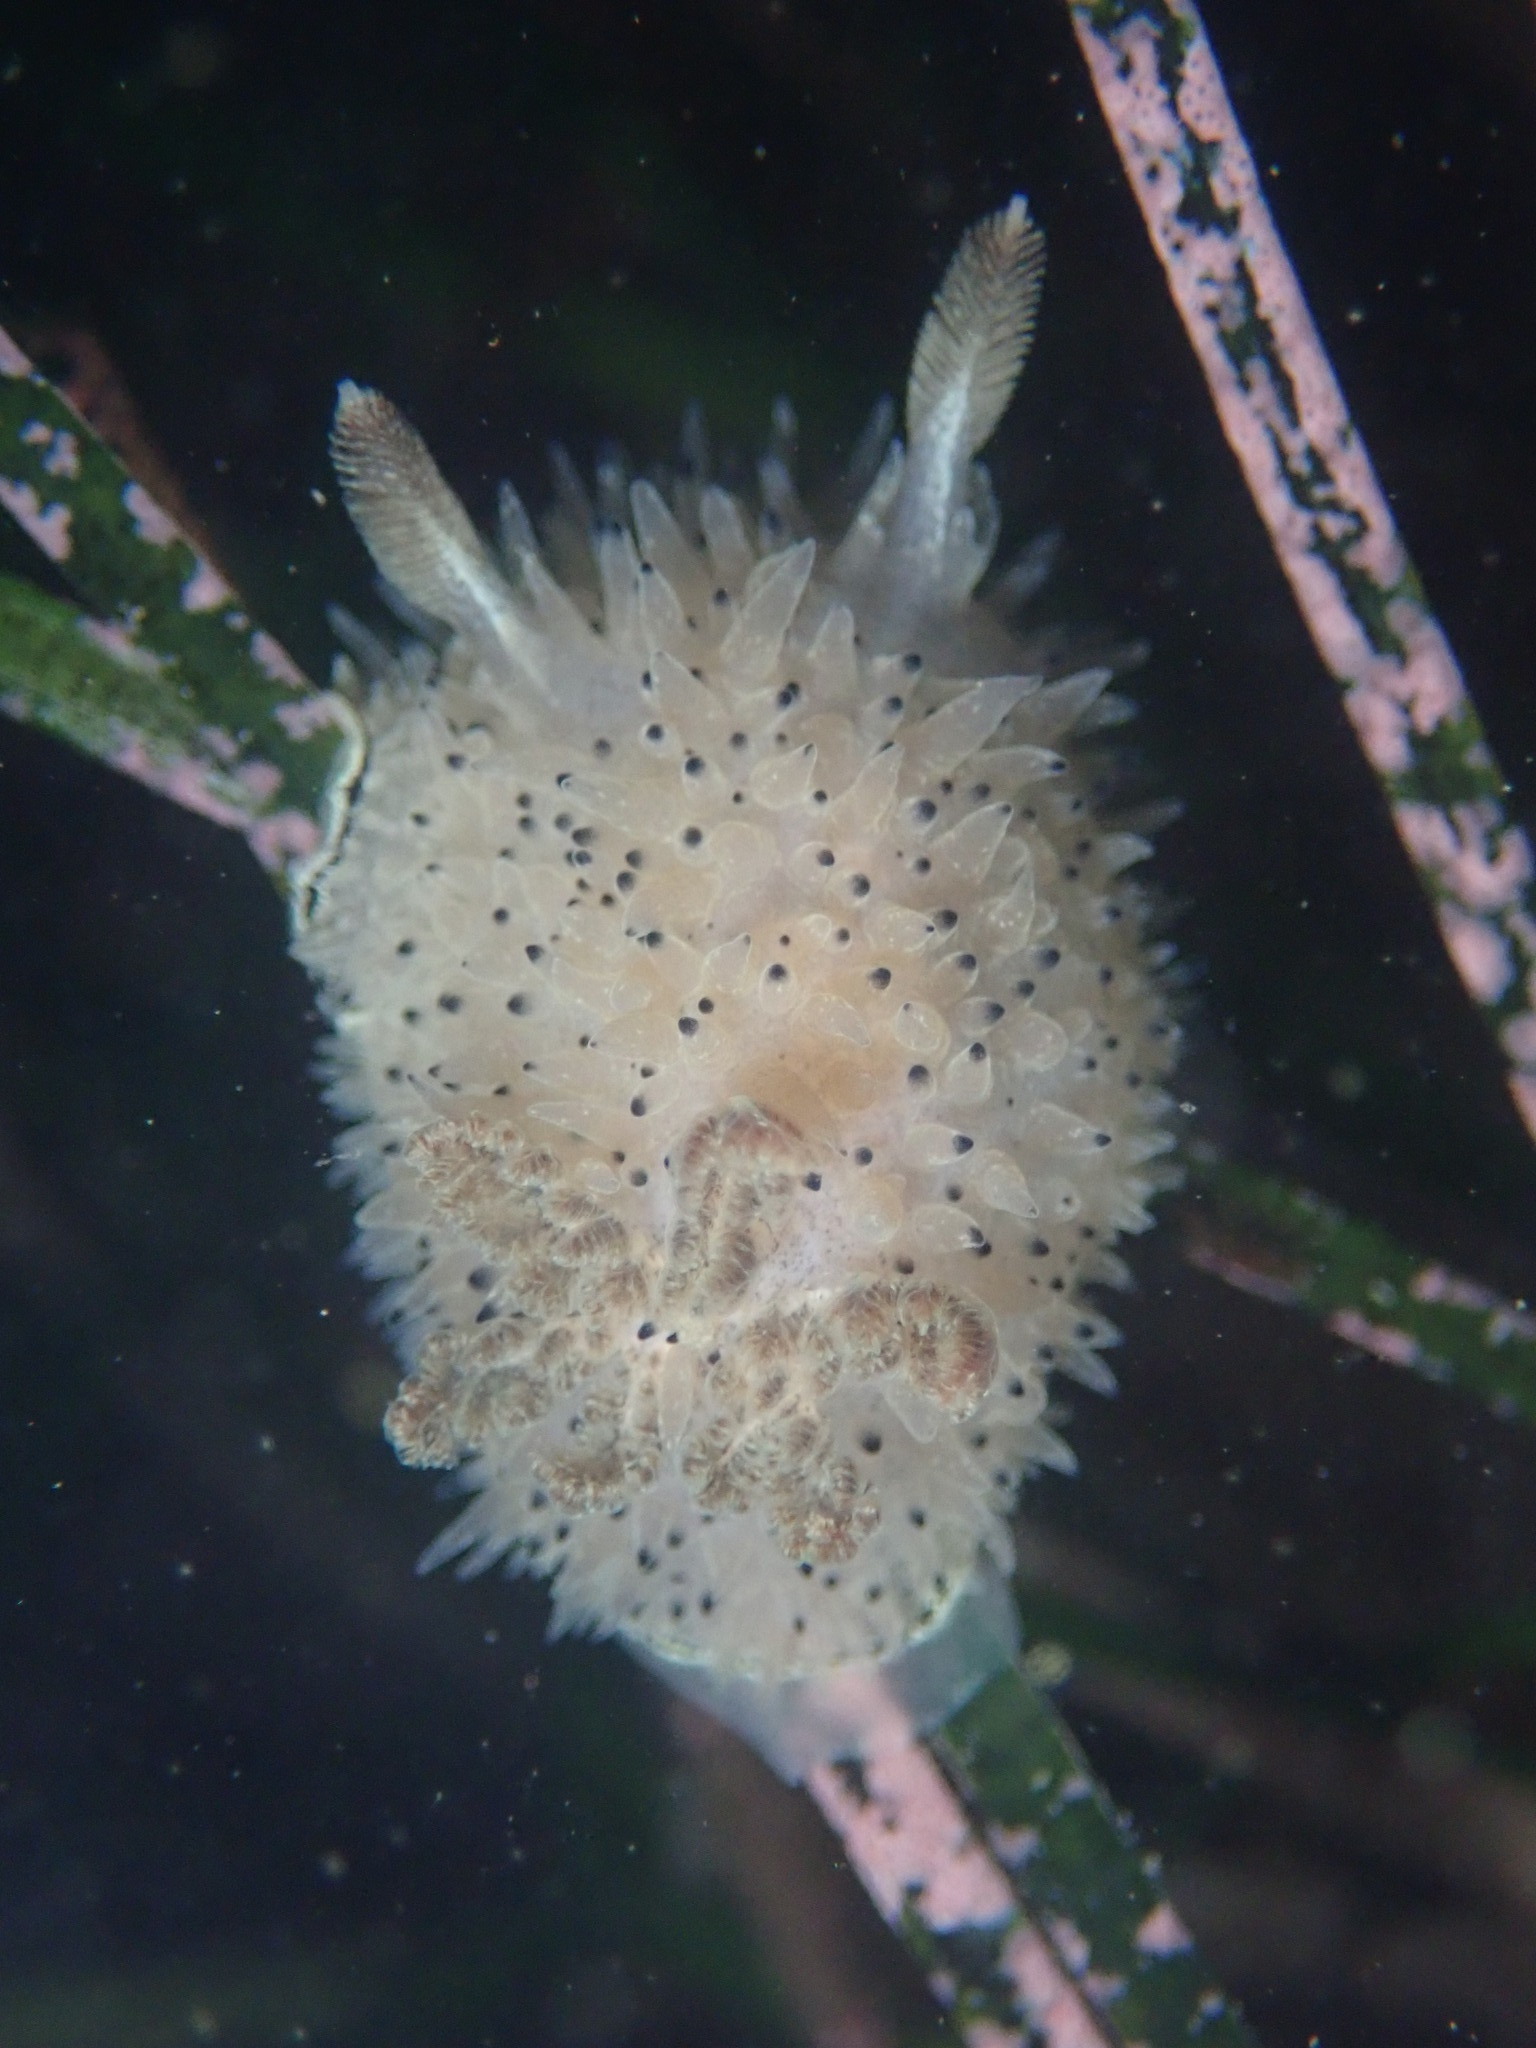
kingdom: Animalia
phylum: Mollusca
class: Gastropoda
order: Nudibranchia
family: Onchidorididae
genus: Acanthodoris
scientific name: Acanthodoris rhodoceras
